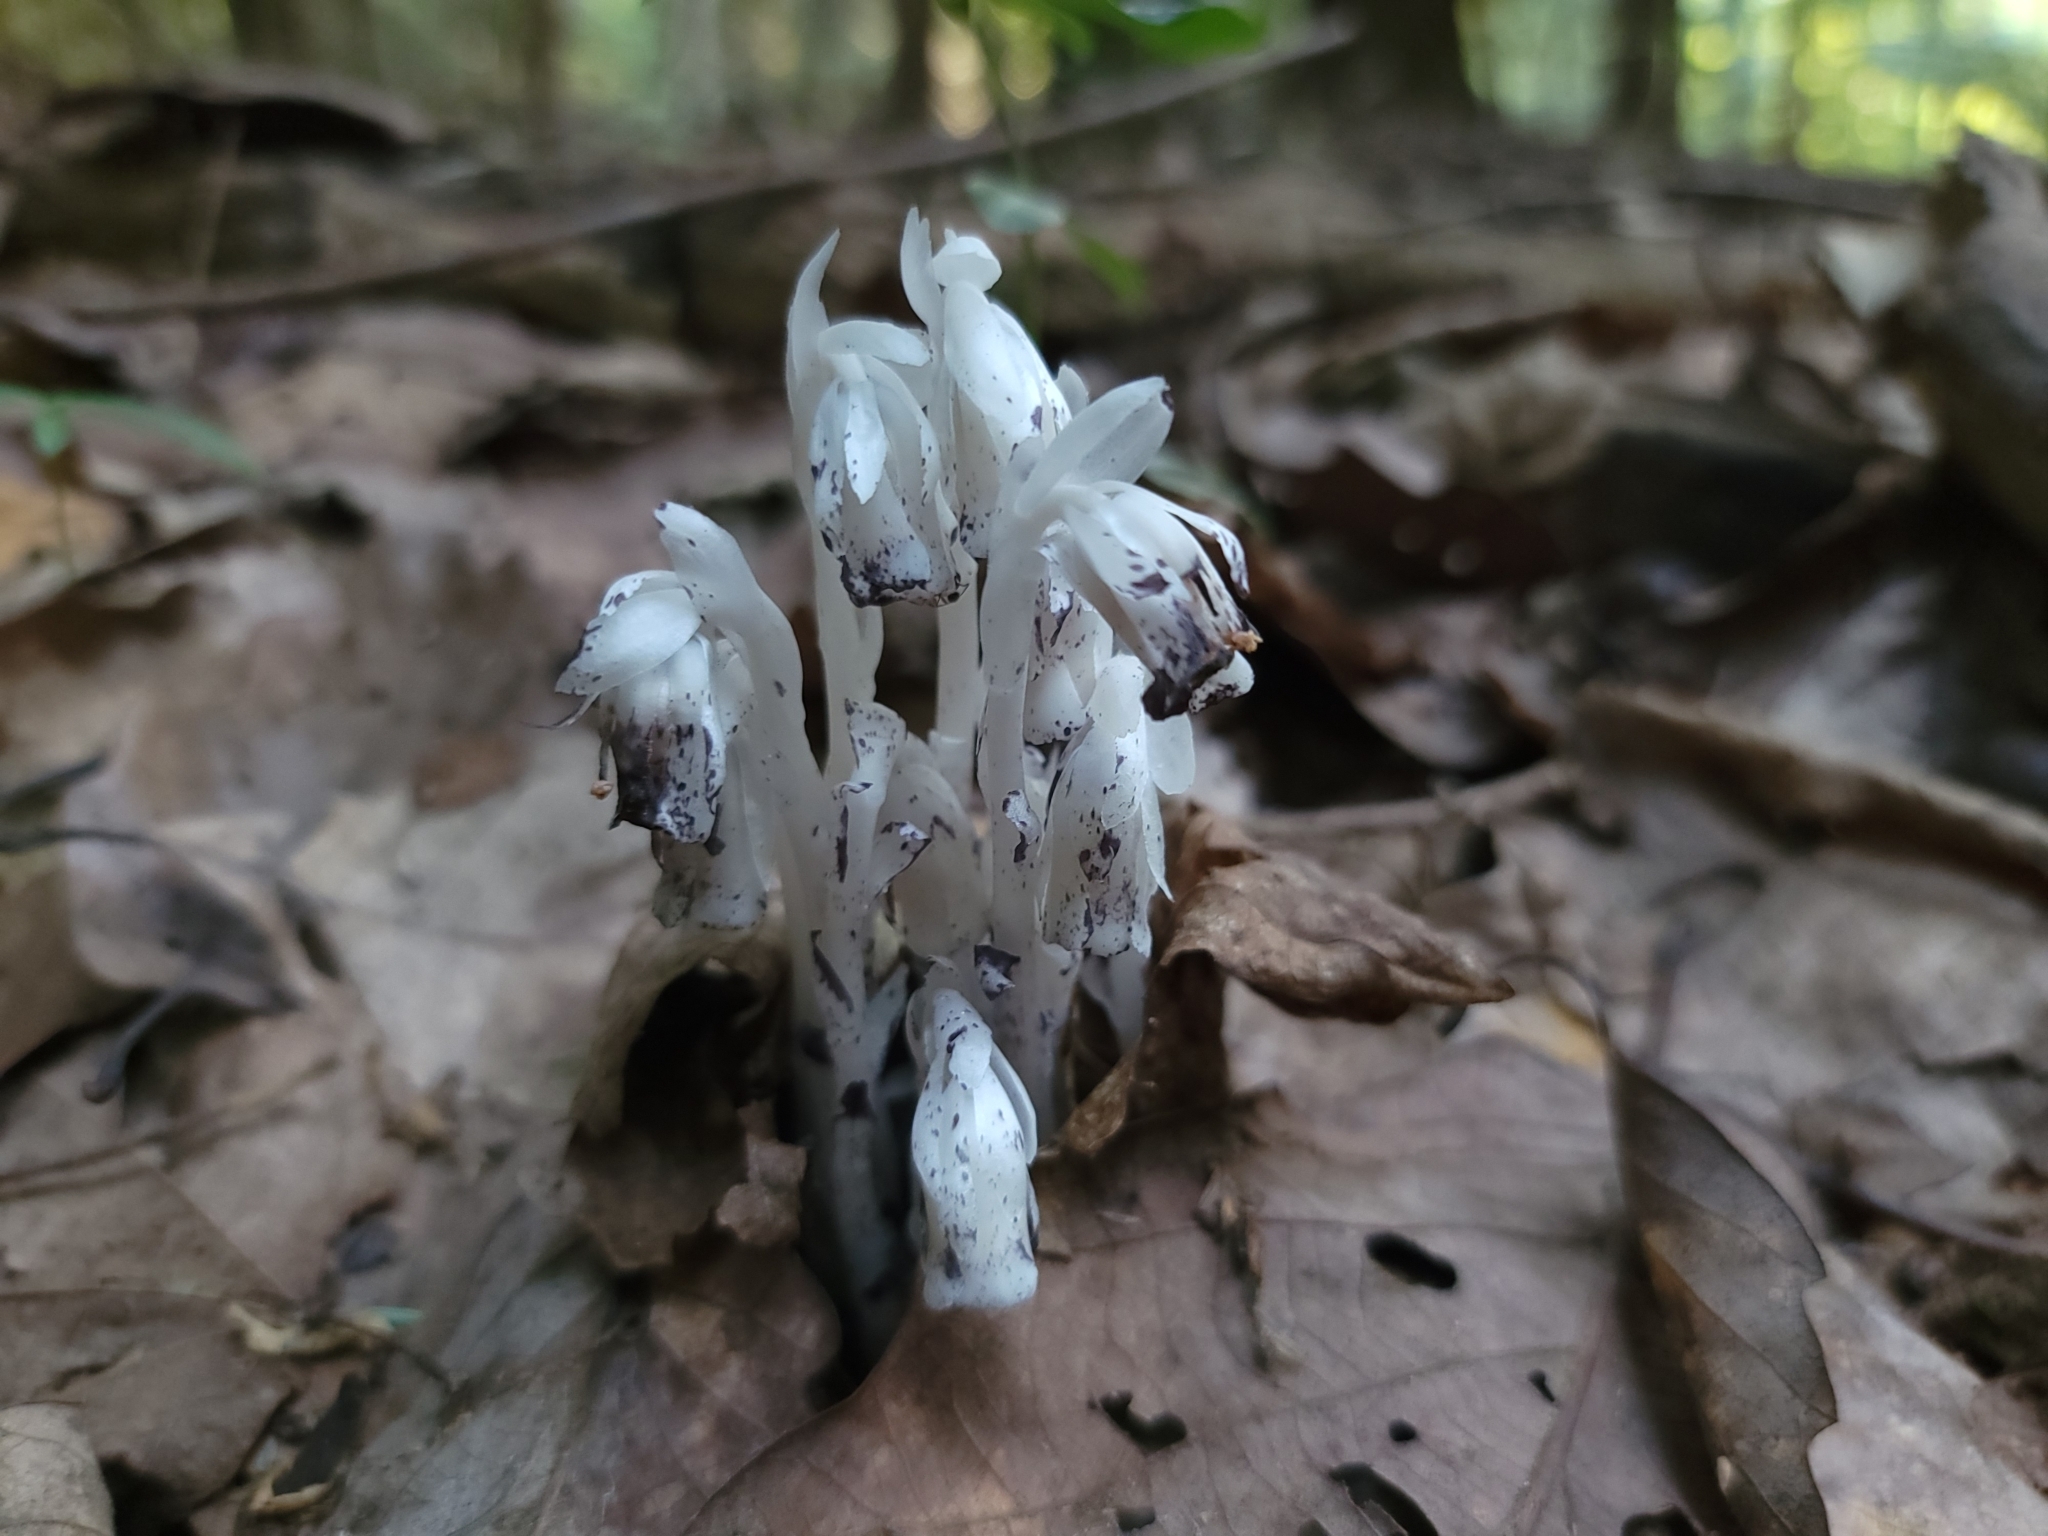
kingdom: Plantae
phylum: Tracheophyta
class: Magnoliopsida
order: Ericales
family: Ericaceae
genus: Monotropa
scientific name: Monotropa uniflora
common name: Convulsion root
